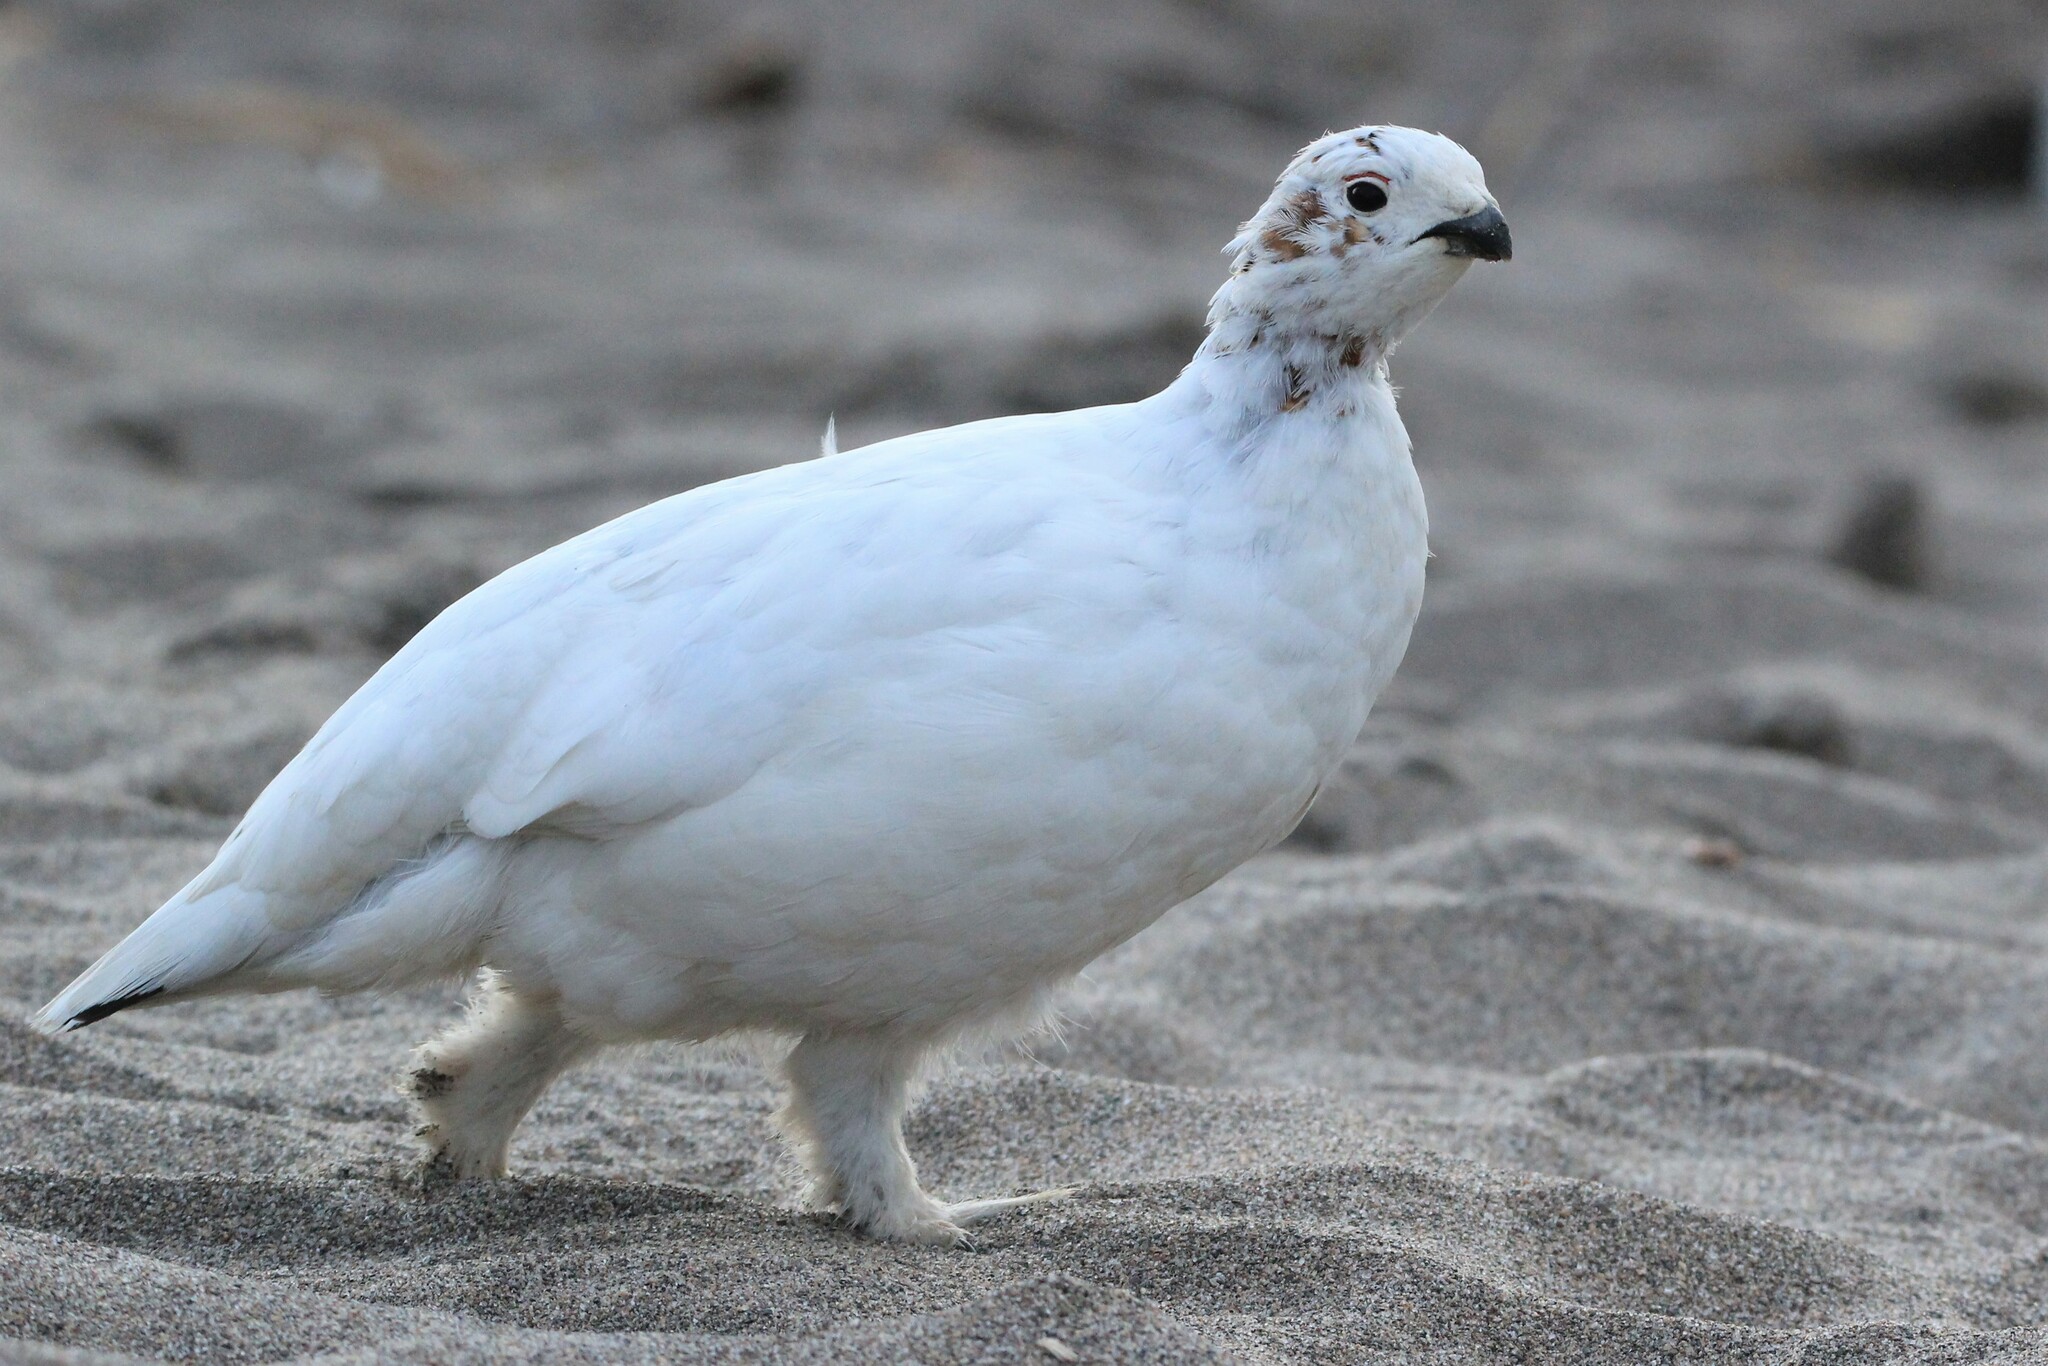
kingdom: Animalia
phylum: Chordata
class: Aves
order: Galliformes
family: Phasianidae
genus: Lagopus
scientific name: Lagopus lagopus
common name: Willow ptarmigan
